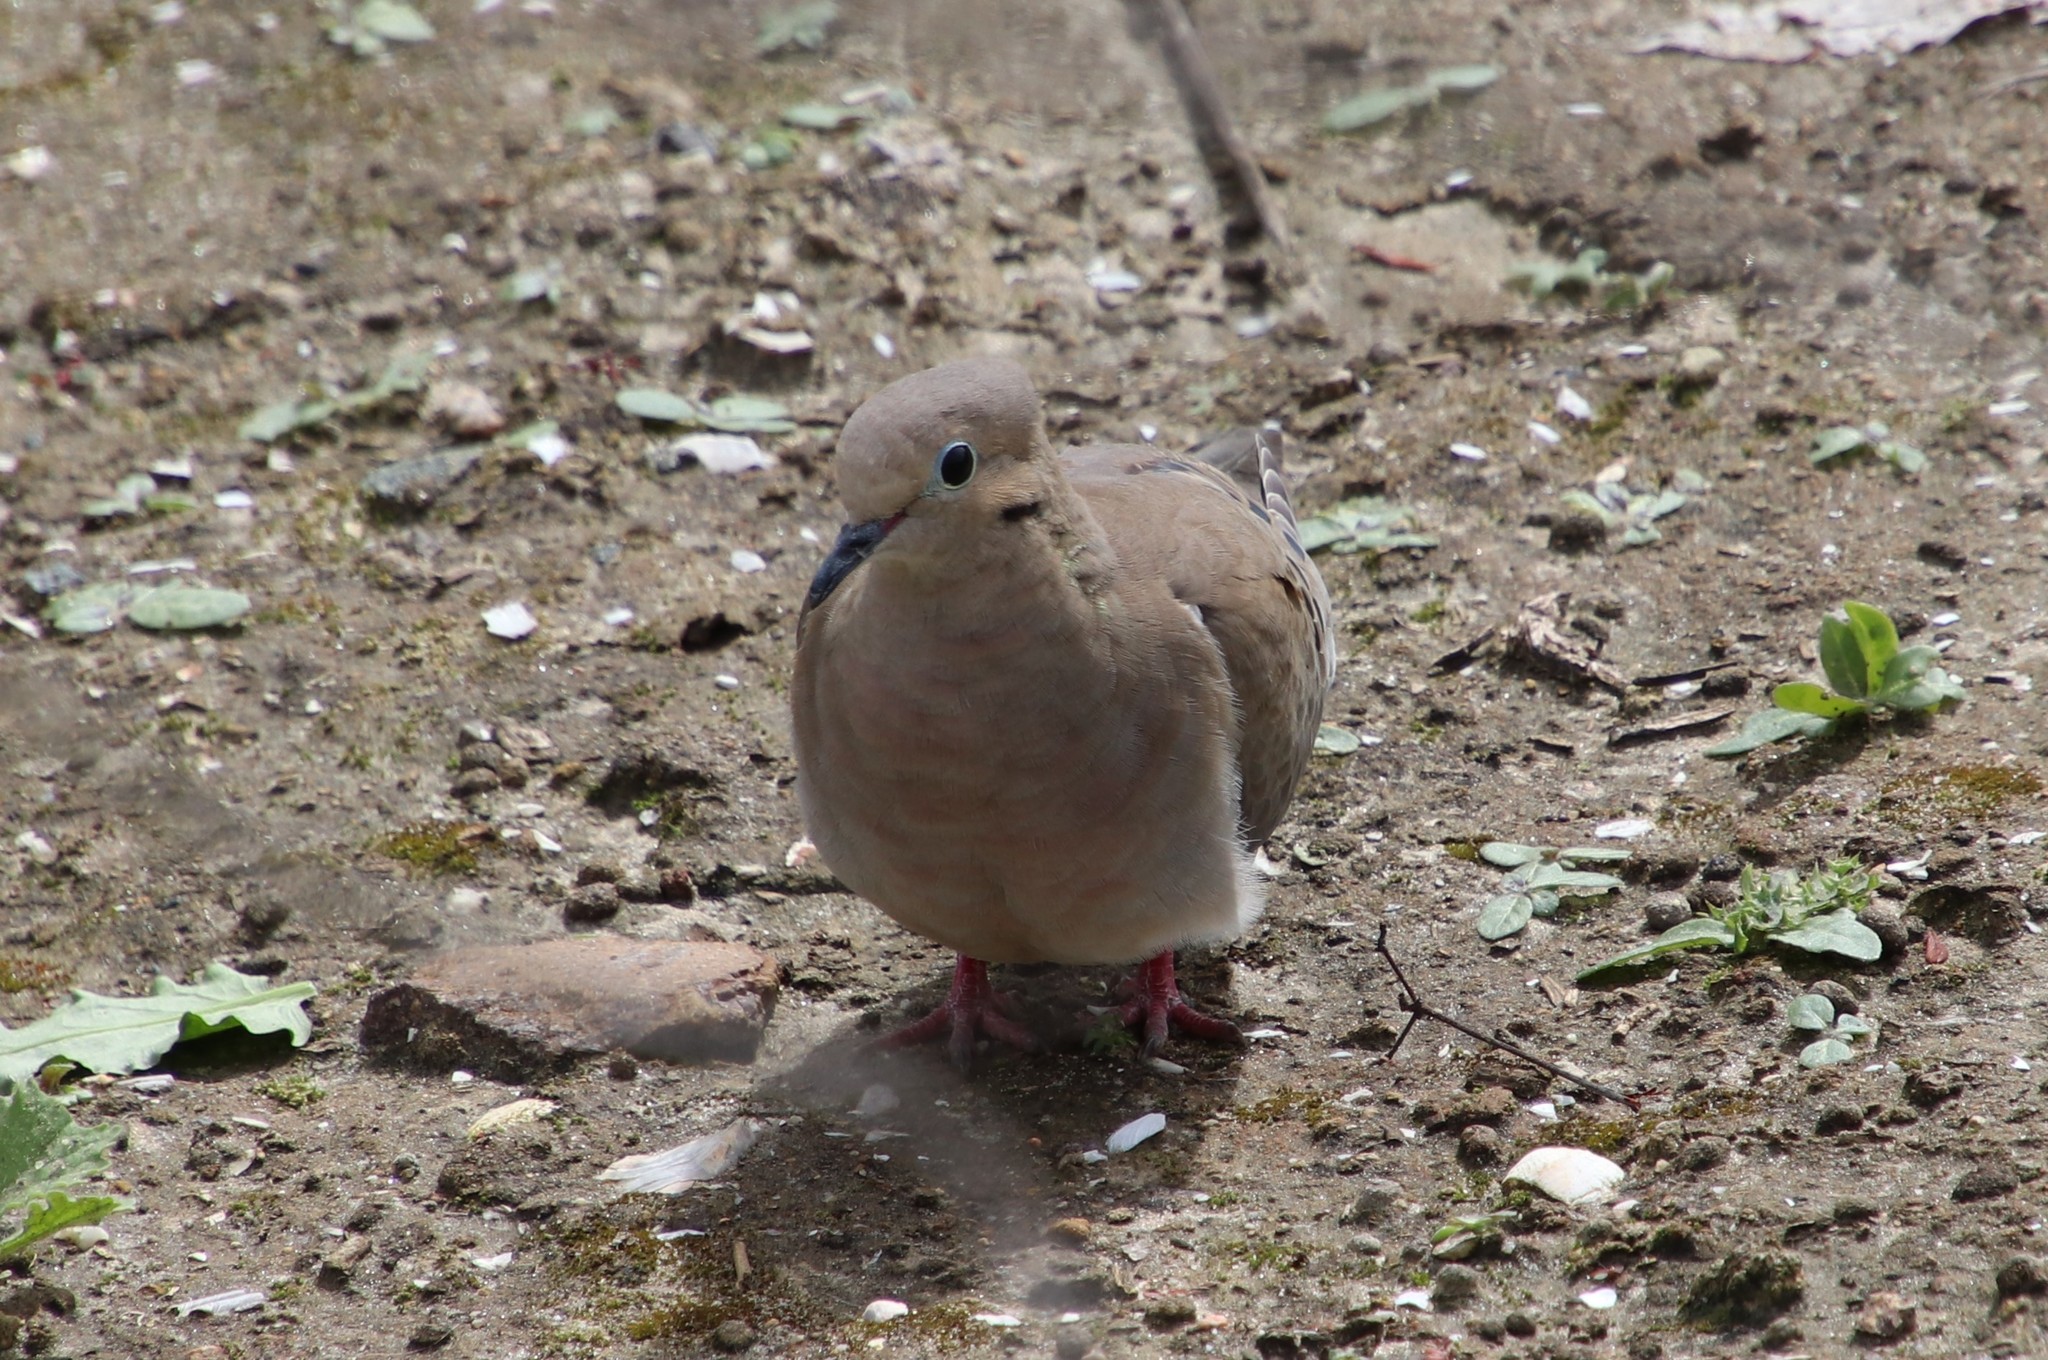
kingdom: Animalia
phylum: Chordata
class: Aves
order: Columbiformes
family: Columbidae
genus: Zenaida
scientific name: Zenaida macroura
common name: Mourning dove
